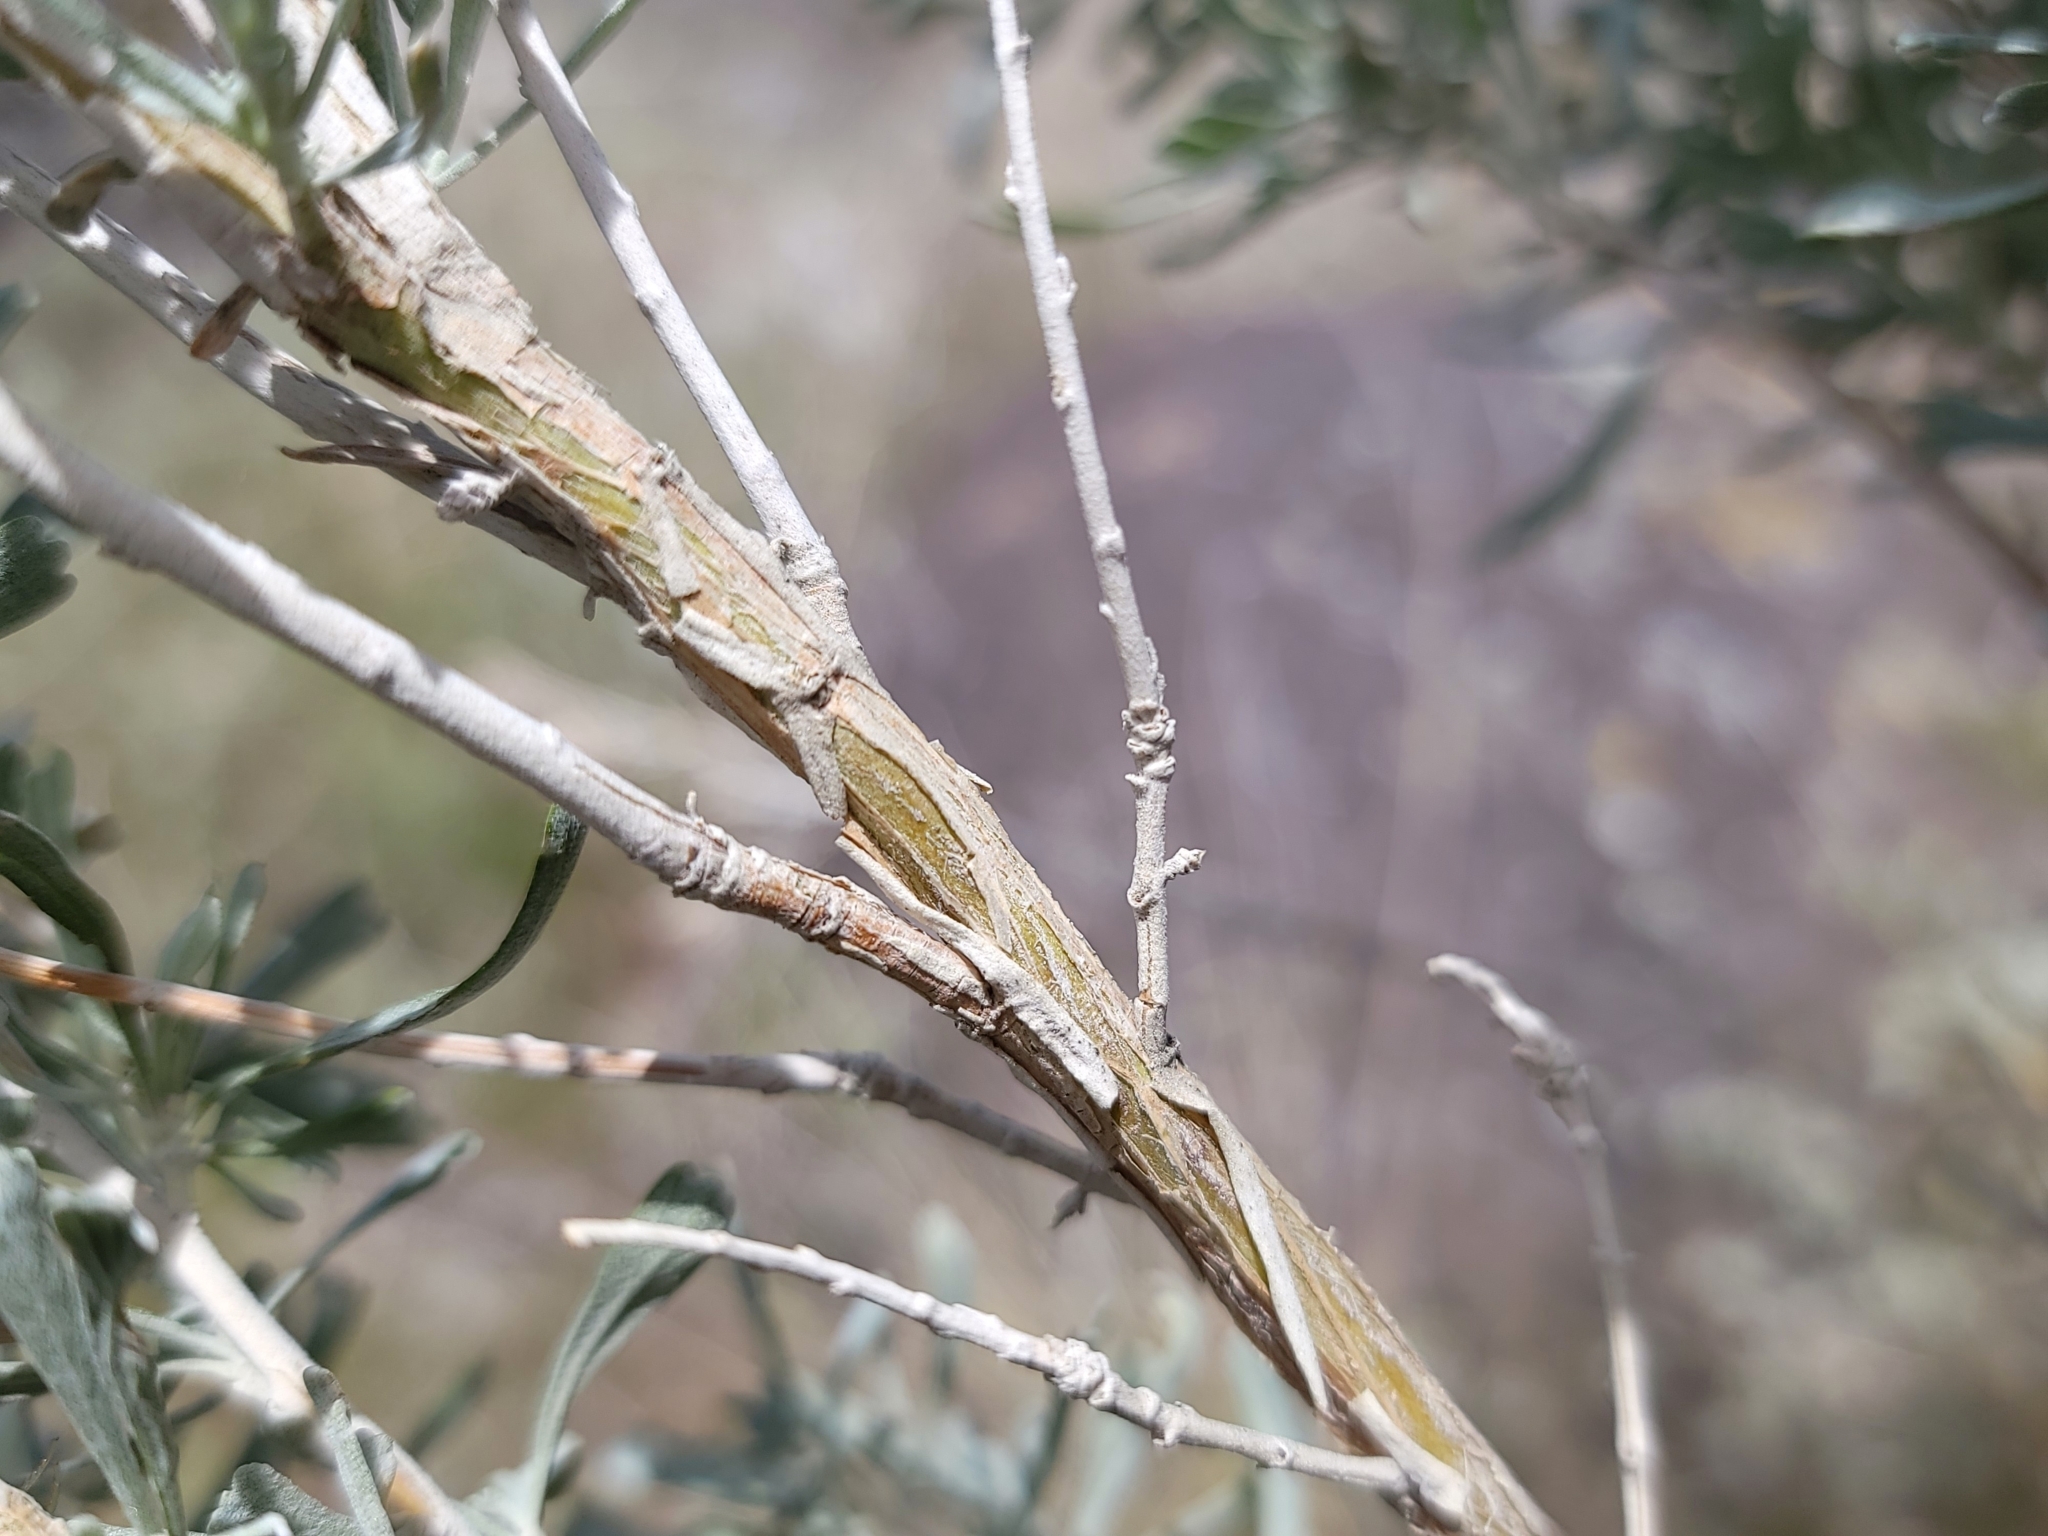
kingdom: Plantae
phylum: Tracheophyta
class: Magnoliopsida
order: Asterales
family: Asteraceae
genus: Artemisia
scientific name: Artemisia tridentata
